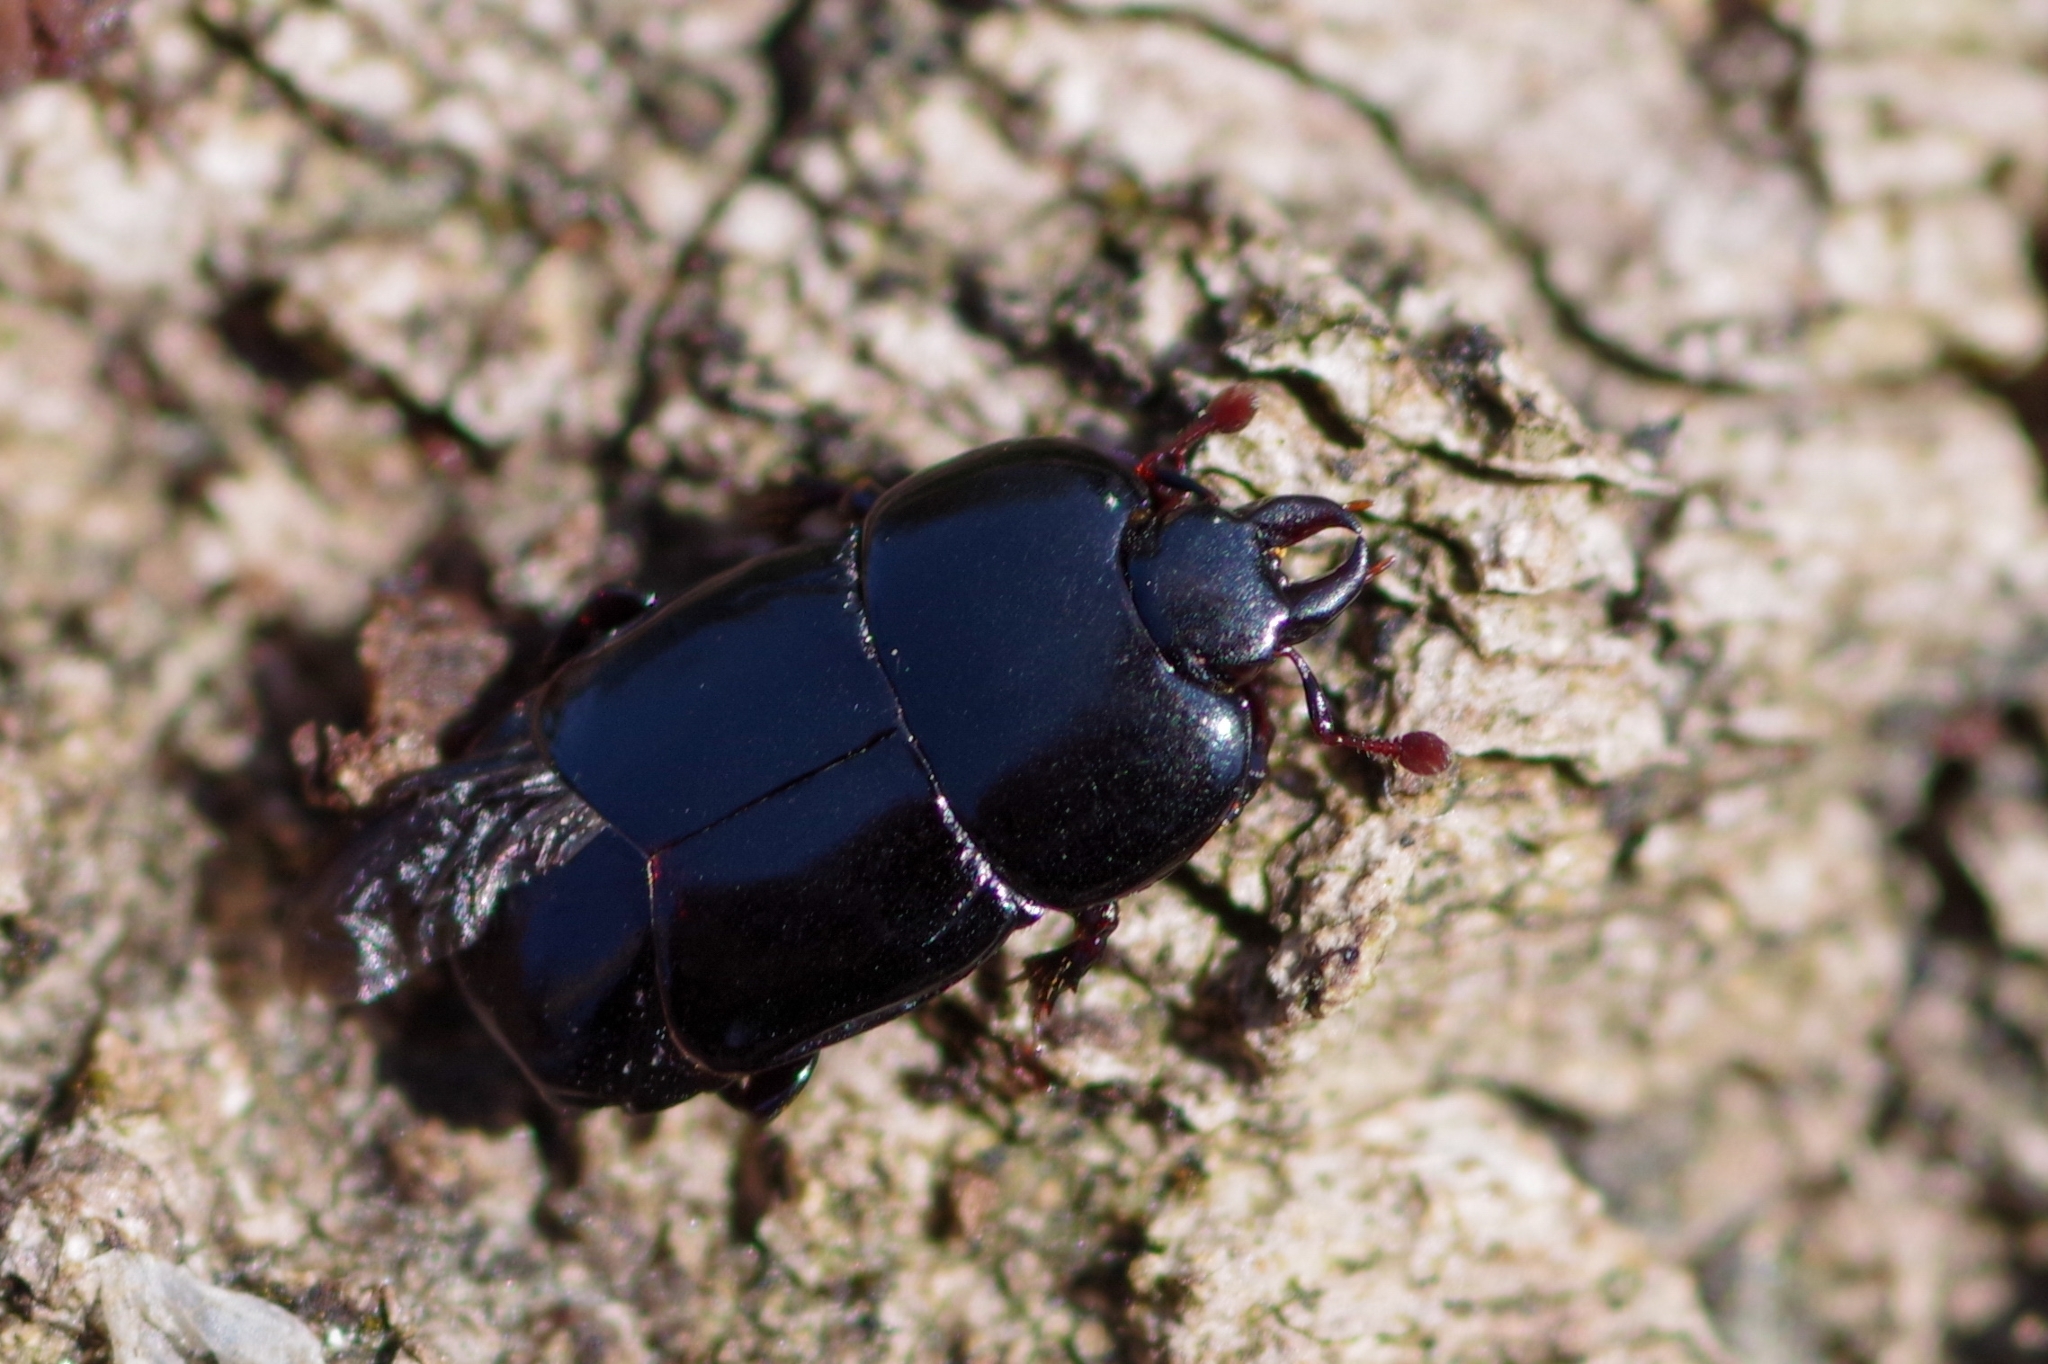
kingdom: Animalia
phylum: Arthropoda
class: Insecta
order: Coleoptera
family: Histeridae
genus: Hololepta
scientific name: Hololepta plana
